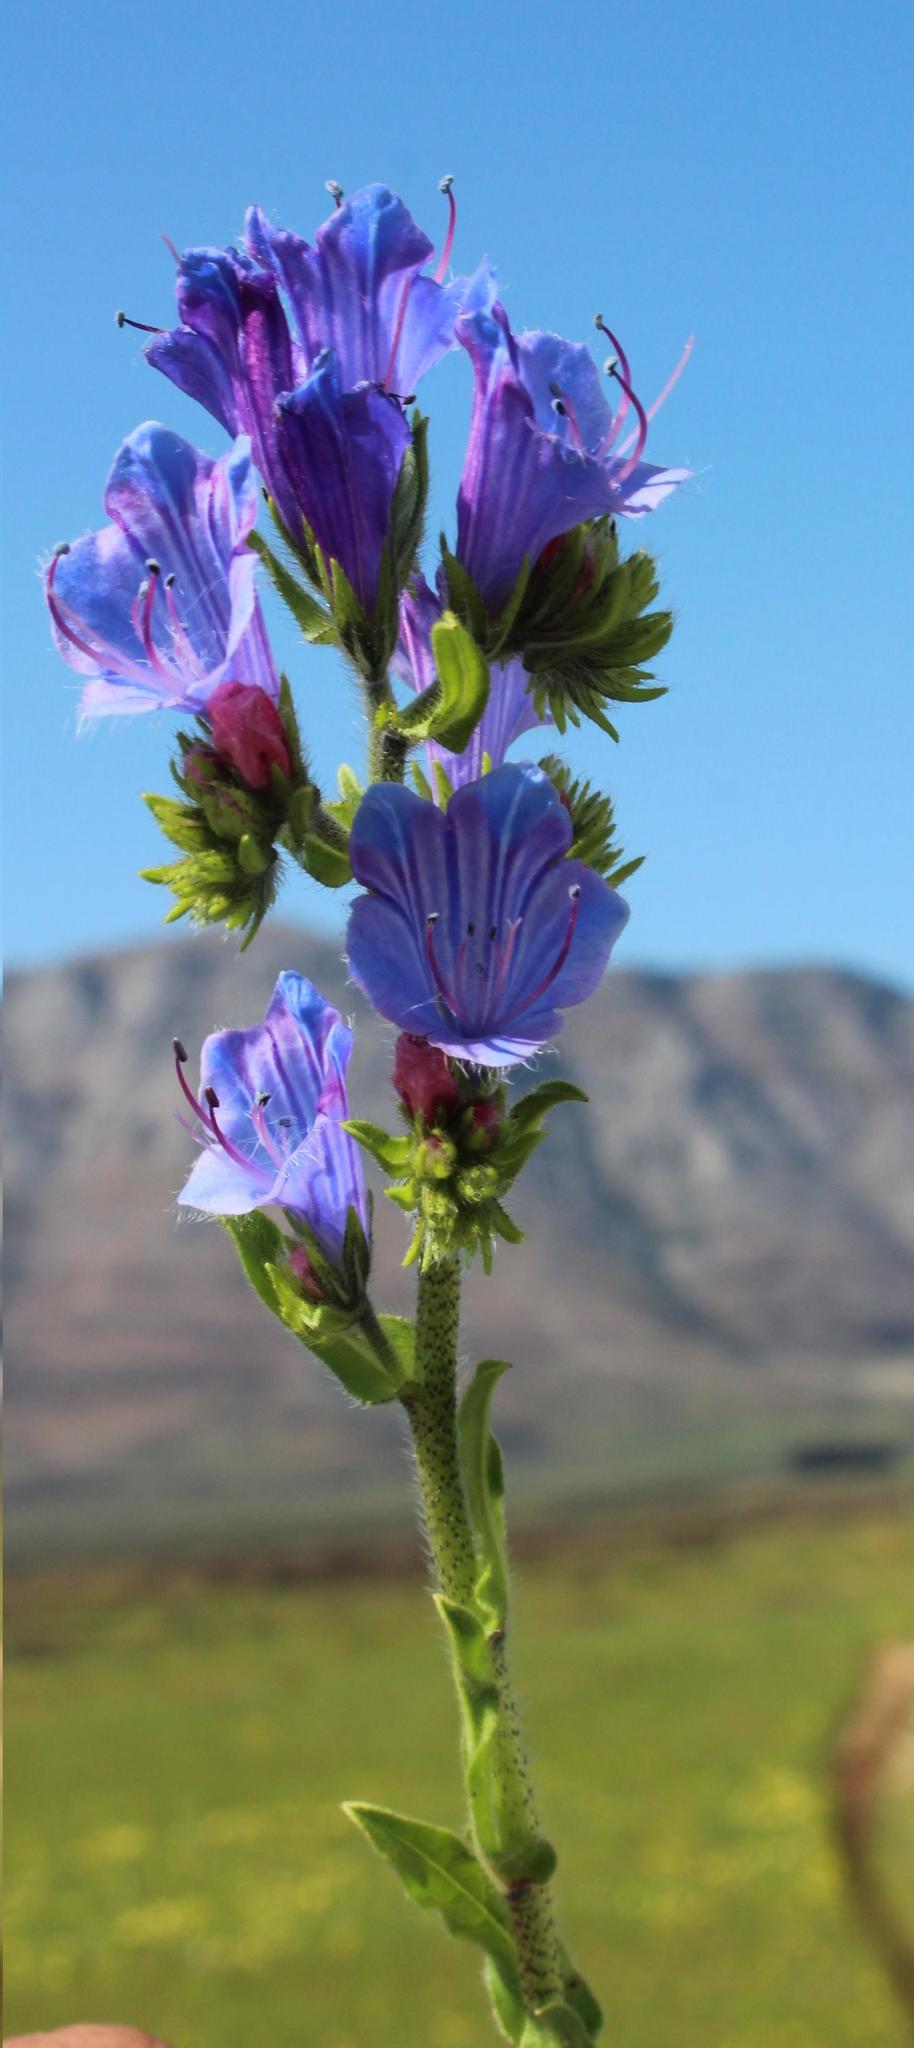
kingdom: Plantae
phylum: Tracheophyta
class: Magnoliopsida
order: Boraginales
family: Boraginaceae
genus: Echium
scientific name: Echium plantagineum
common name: Purple viper's-bugloss
